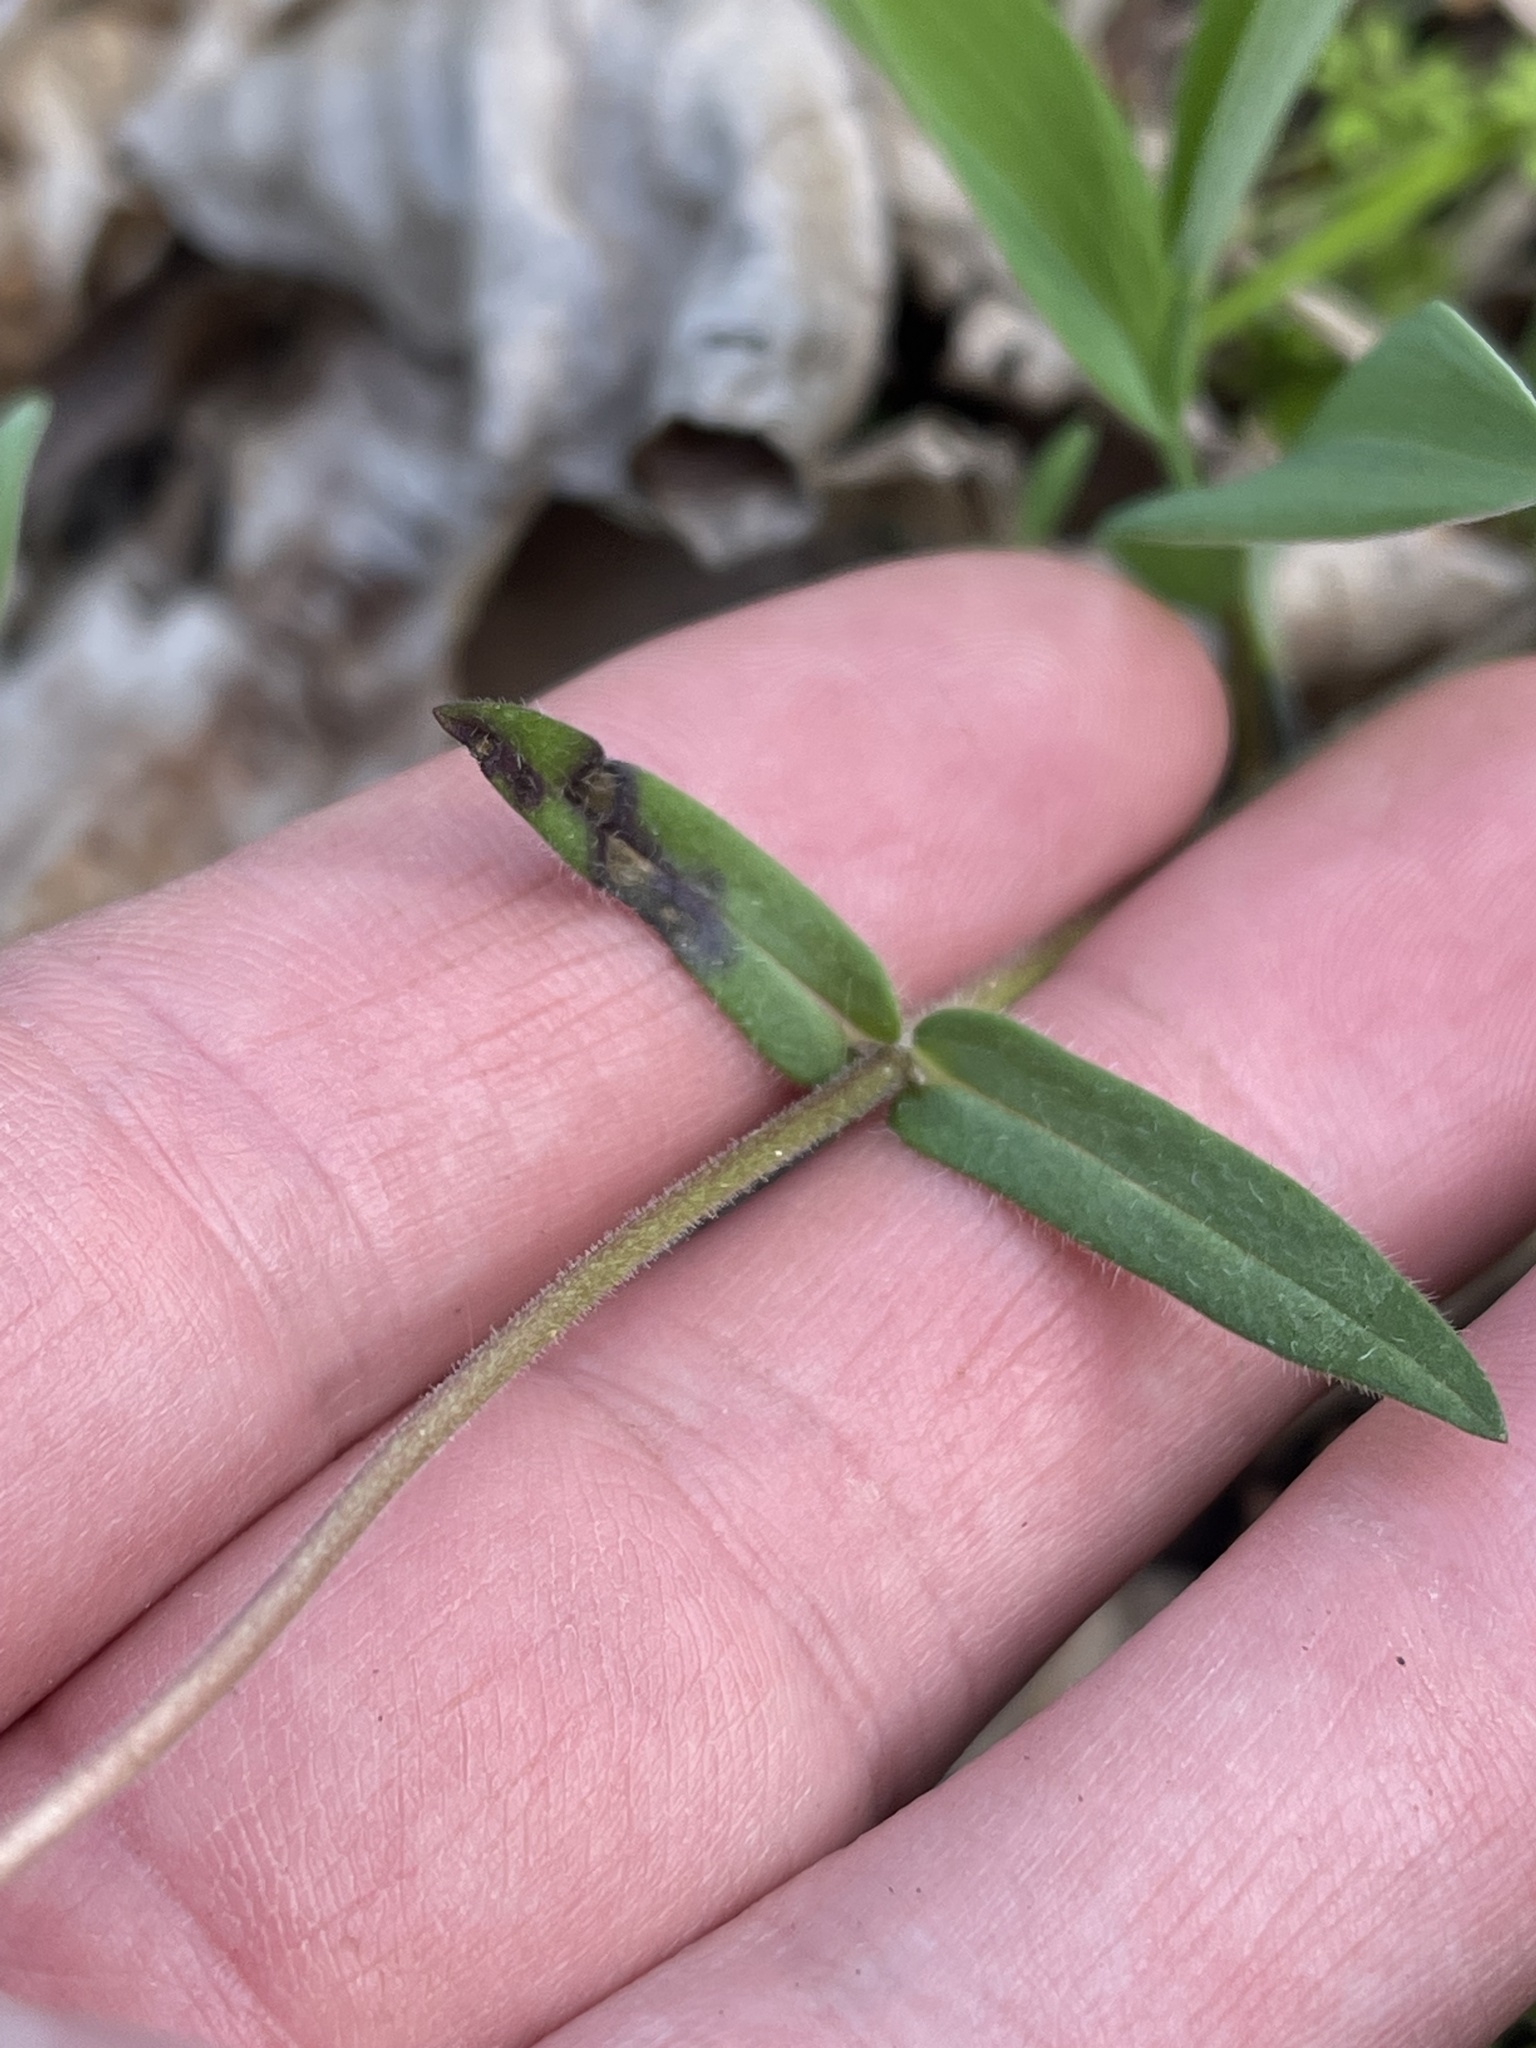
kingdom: Plantae
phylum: Tracheophyta
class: Magnoliopsida
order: Ericales
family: Polemoniaceae
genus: Phlox
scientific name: Phlox divaricata
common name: Blue phlox
